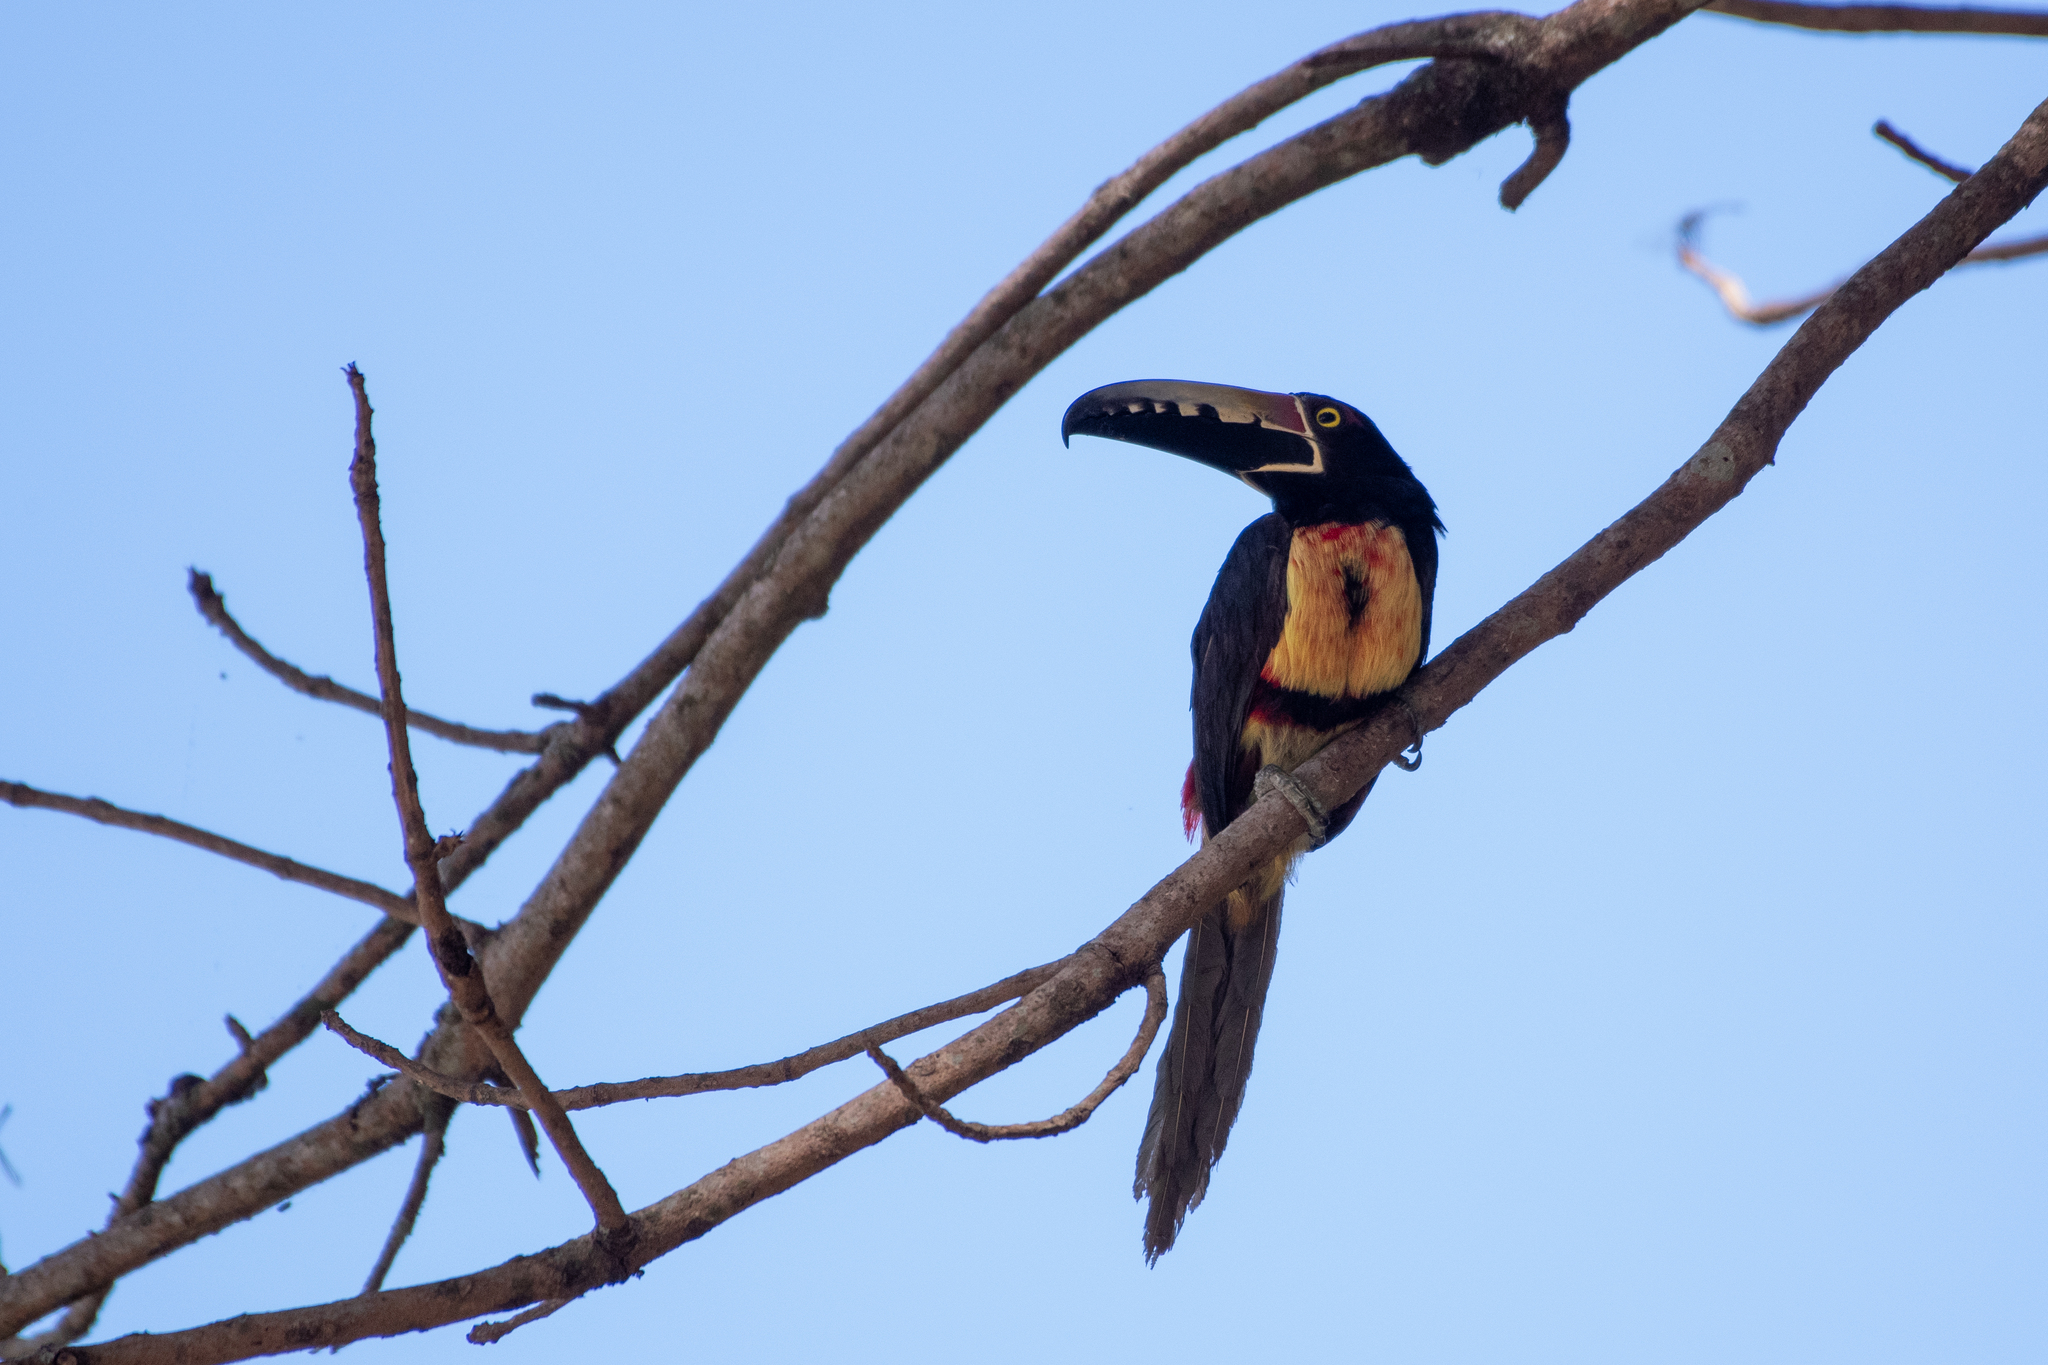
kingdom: Animalia
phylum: Chordata
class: Aves
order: Piciformes
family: Ramphastidae
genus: Pteroglossus
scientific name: Pteroglossus torquatus
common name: Collared aracari
